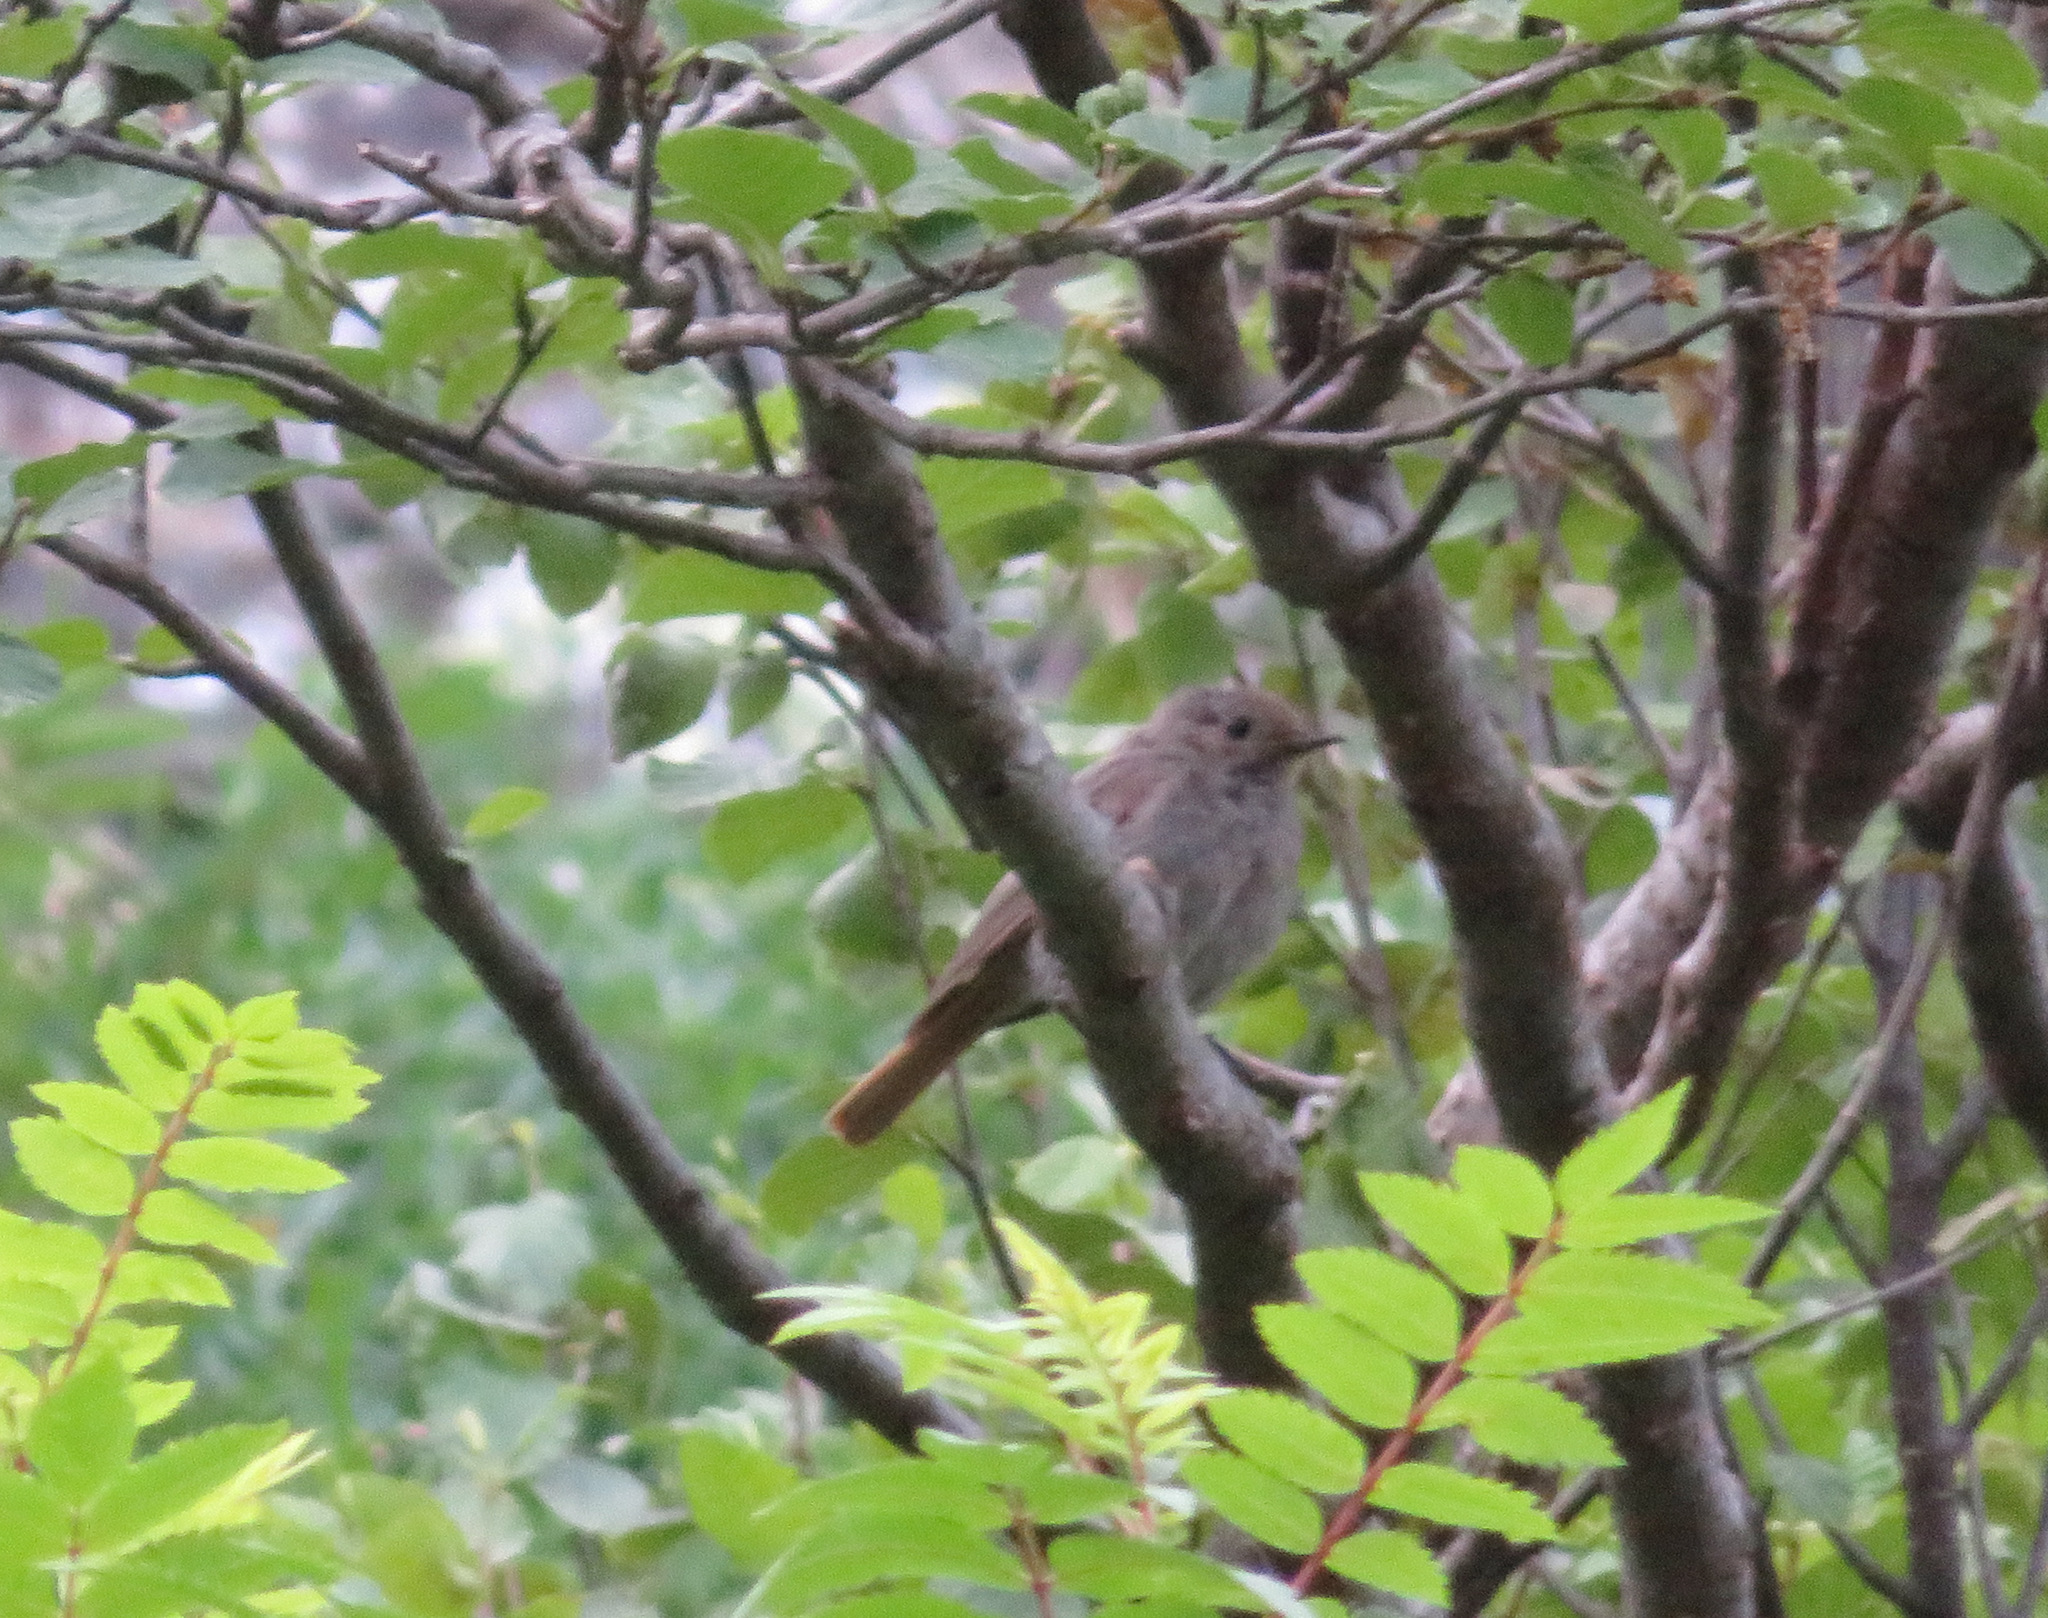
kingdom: Animalia
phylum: Chordata
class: Aves
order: Passeriformes
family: Muscicapidae
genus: Phoenicurus
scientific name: Phoenicurus ochruros
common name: Black redstart
